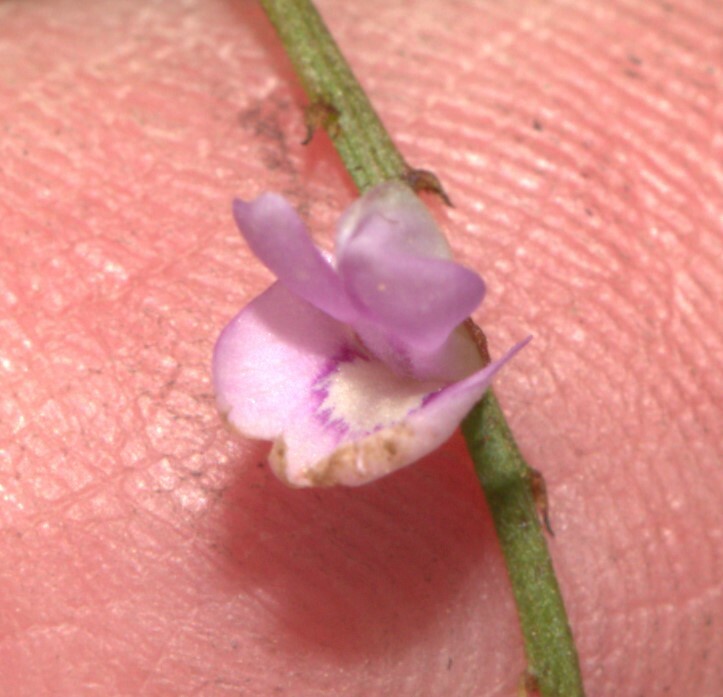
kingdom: Plantae
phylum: Tracheophyta
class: Magnoliopsida
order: Fabales
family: Fabaceae
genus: Indigofera
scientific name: Indigofera australis
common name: Australian indigo
